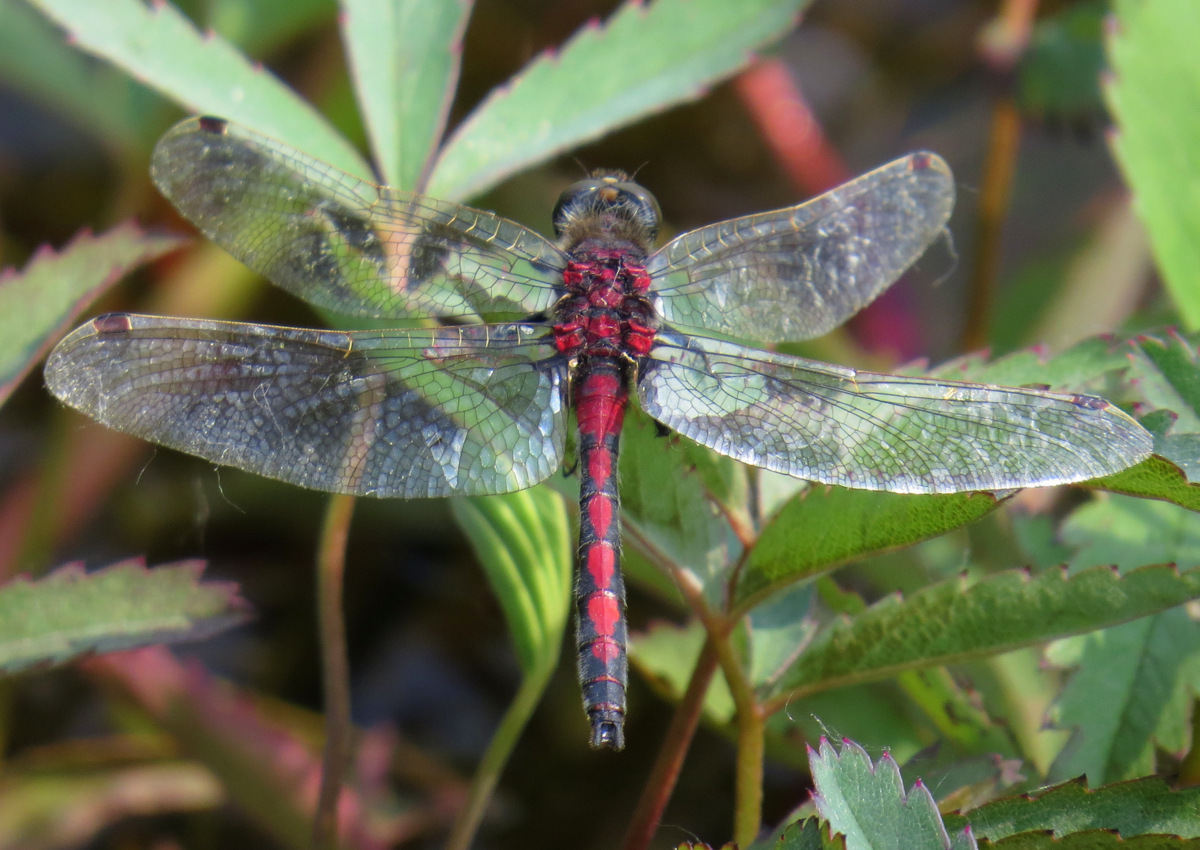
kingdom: Animalia
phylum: Arthropoda
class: Insecta
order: Odonata
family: Libellulidae
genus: Leucorrhinia
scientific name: Leucorrhinia borealis
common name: Boreal whiteface
